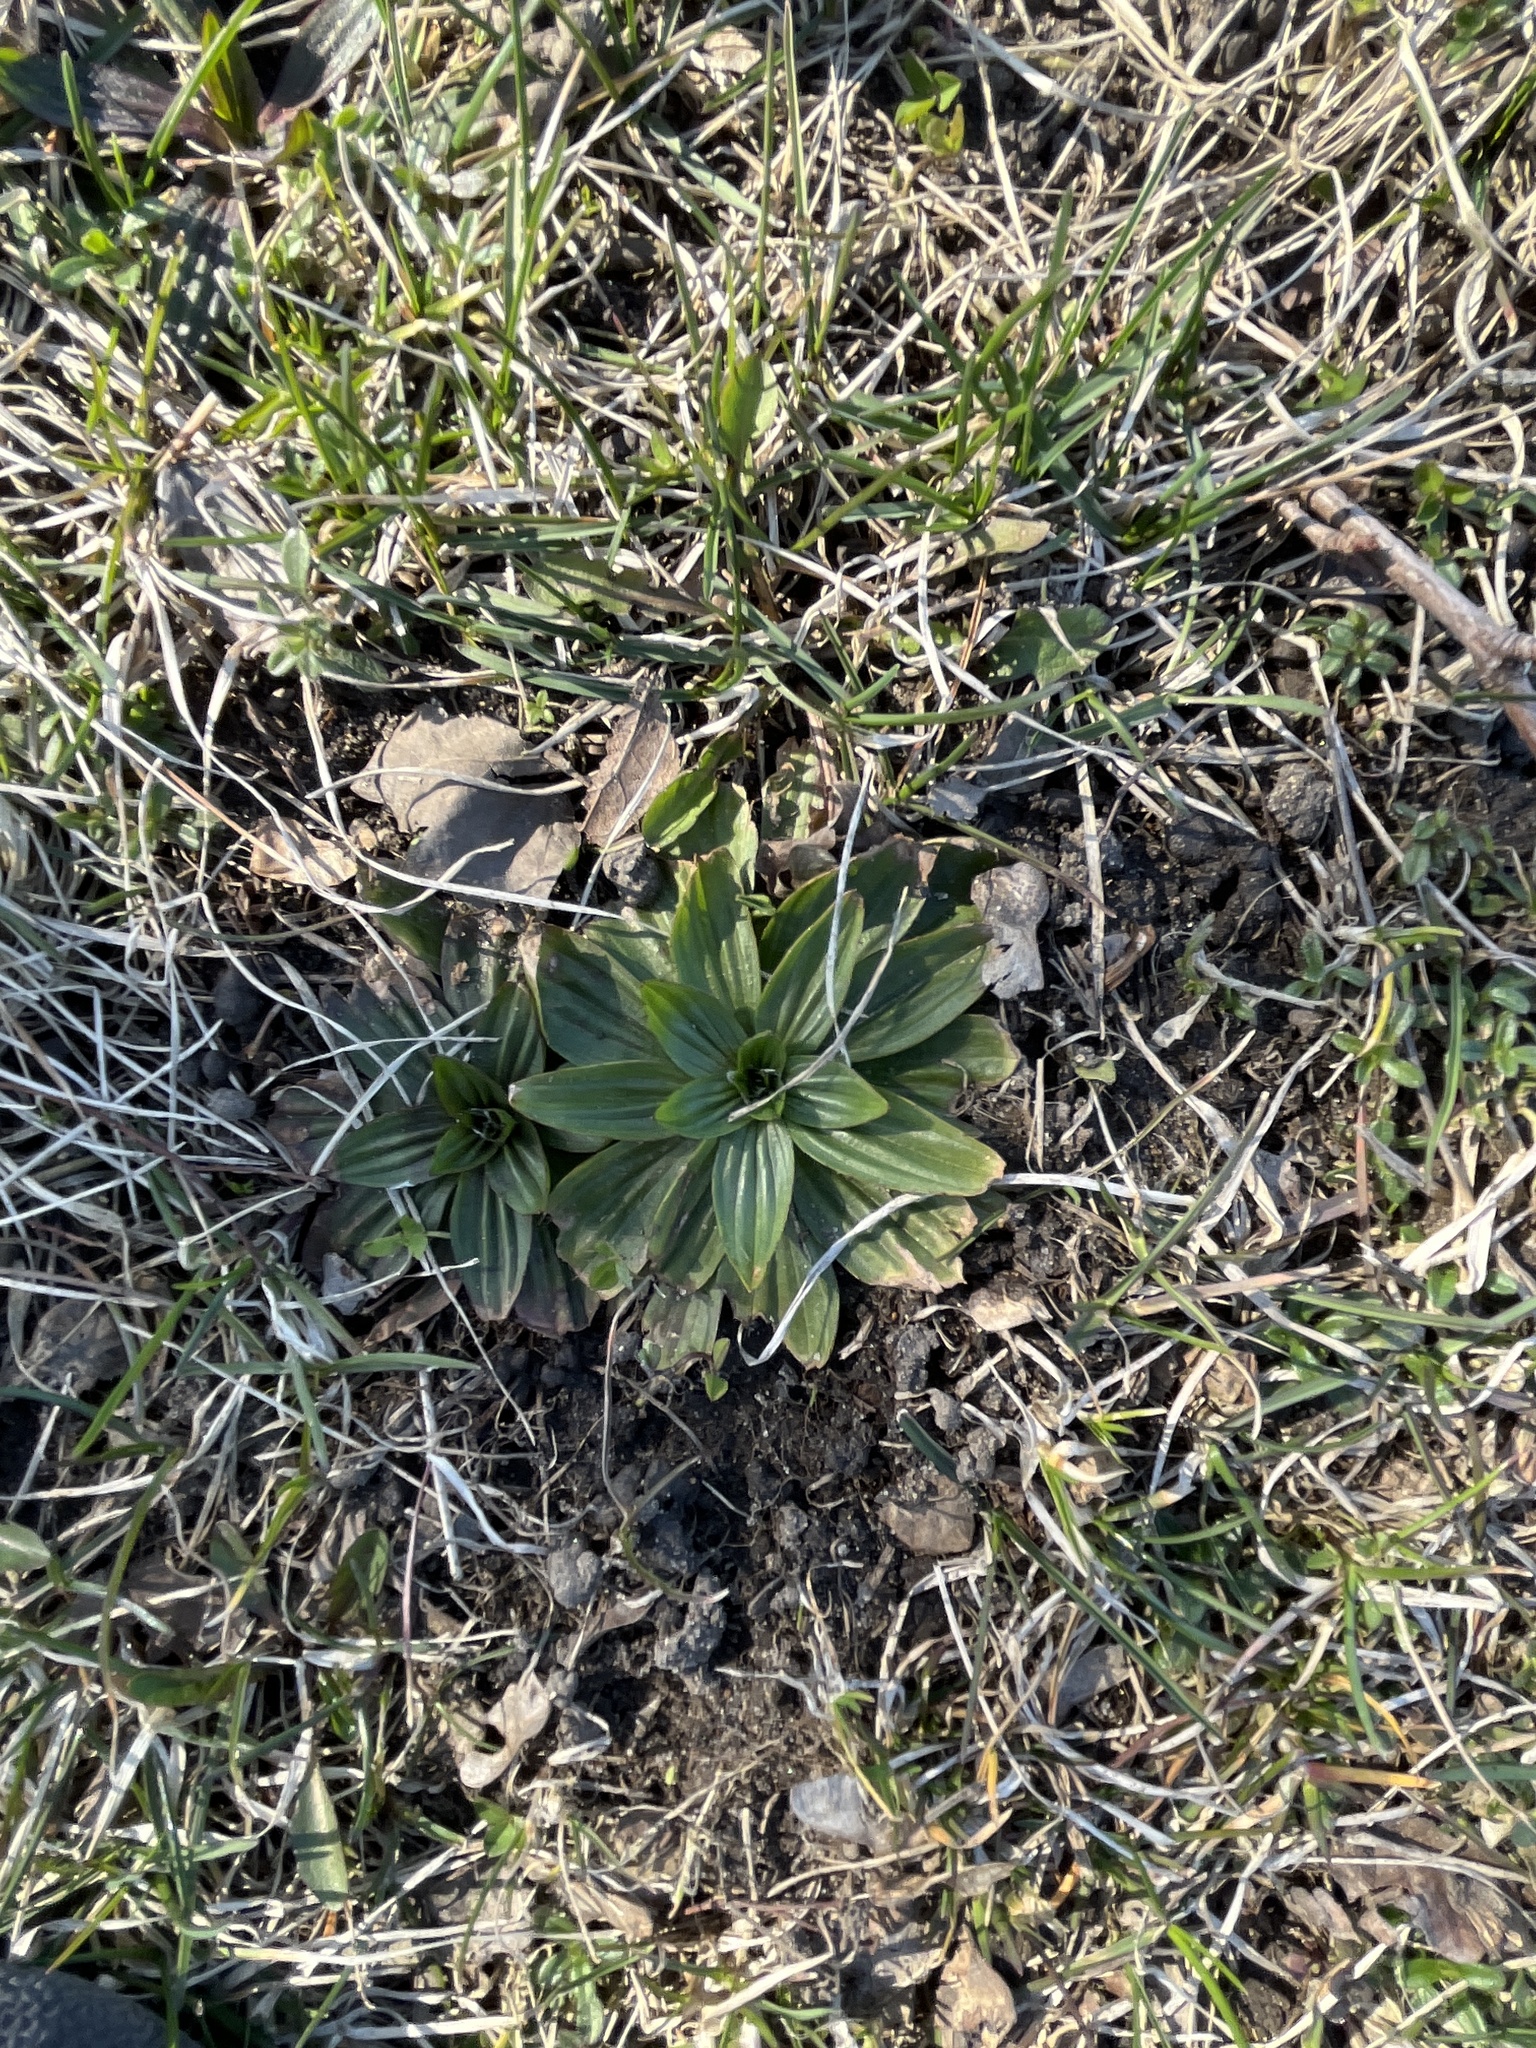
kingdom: Plantae
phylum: Tracheophyta
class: Magnoliopsida
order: Lamiales
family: Plantaginaceae
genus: Plantago
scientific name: Plantago lanceolata
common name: Ribwort plantain
